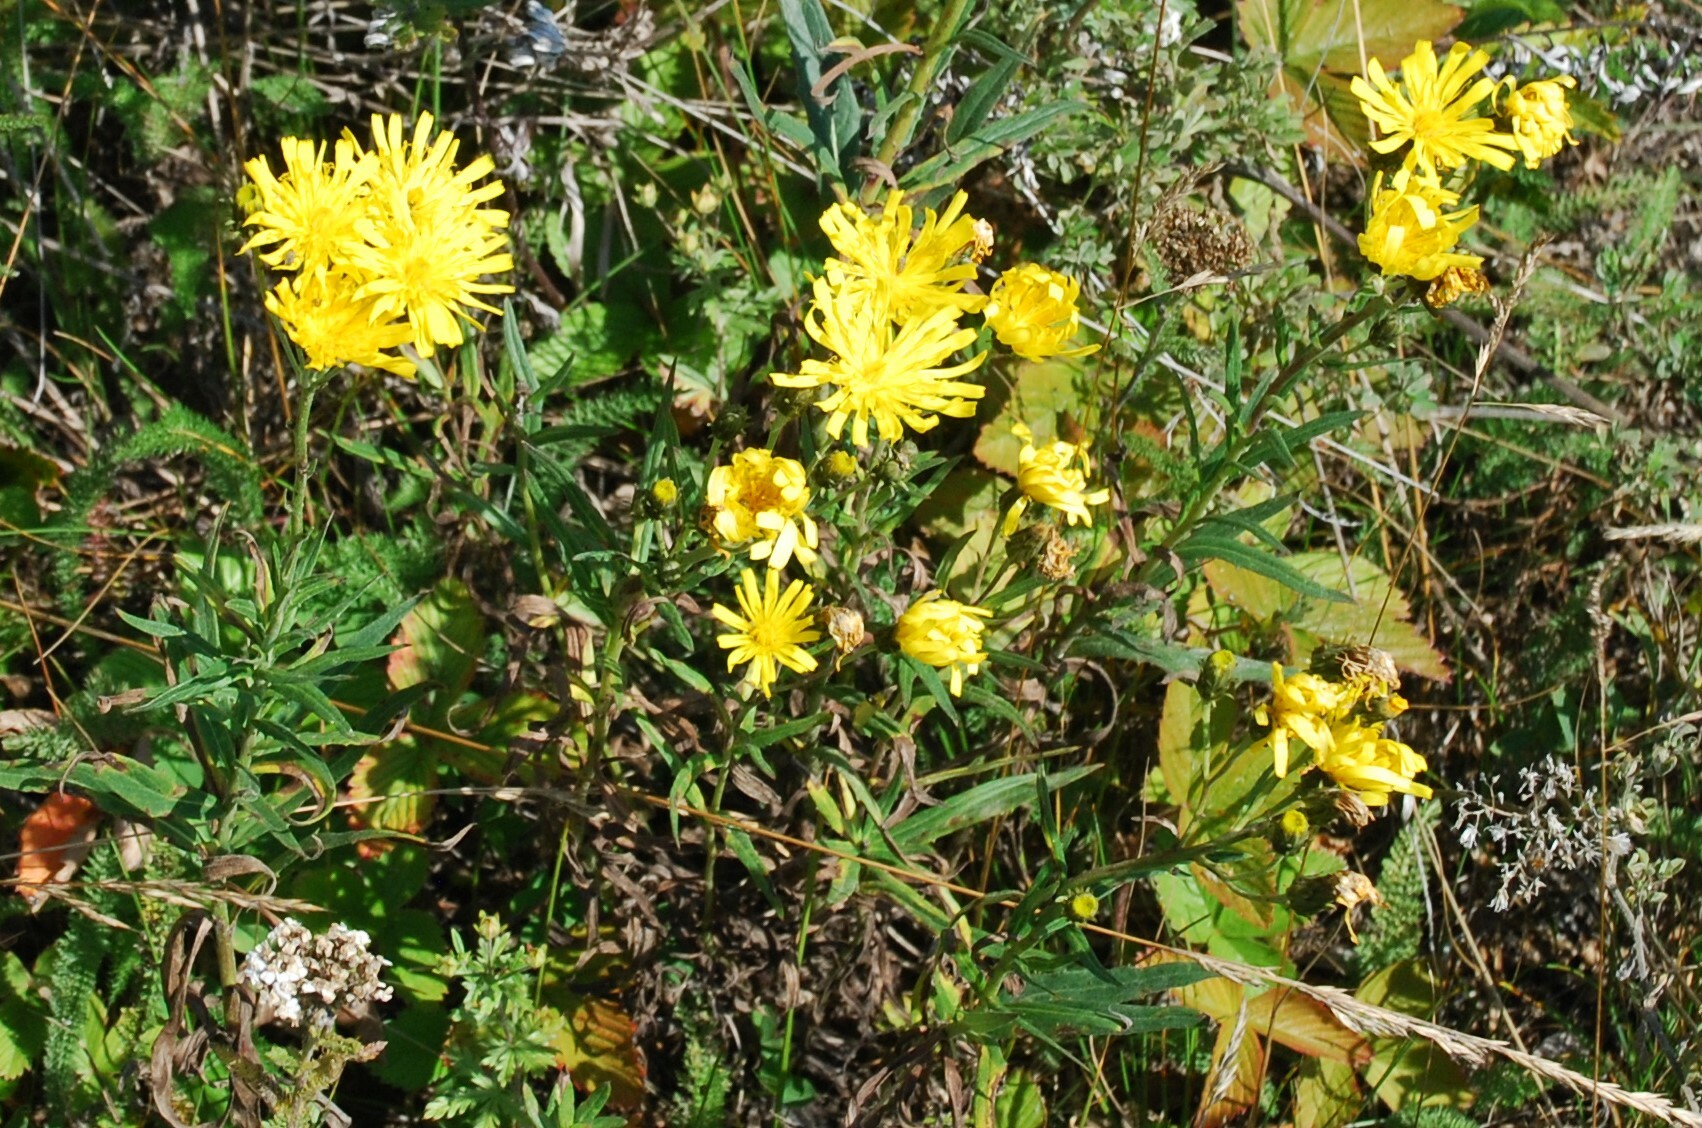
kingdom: Plantae
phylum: Tracheophyta
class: Magnoliopsida
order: Asterales
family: Asteraceae
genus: Hieracium
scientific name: Hieracium umbellatum
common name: Northern hawkweed
